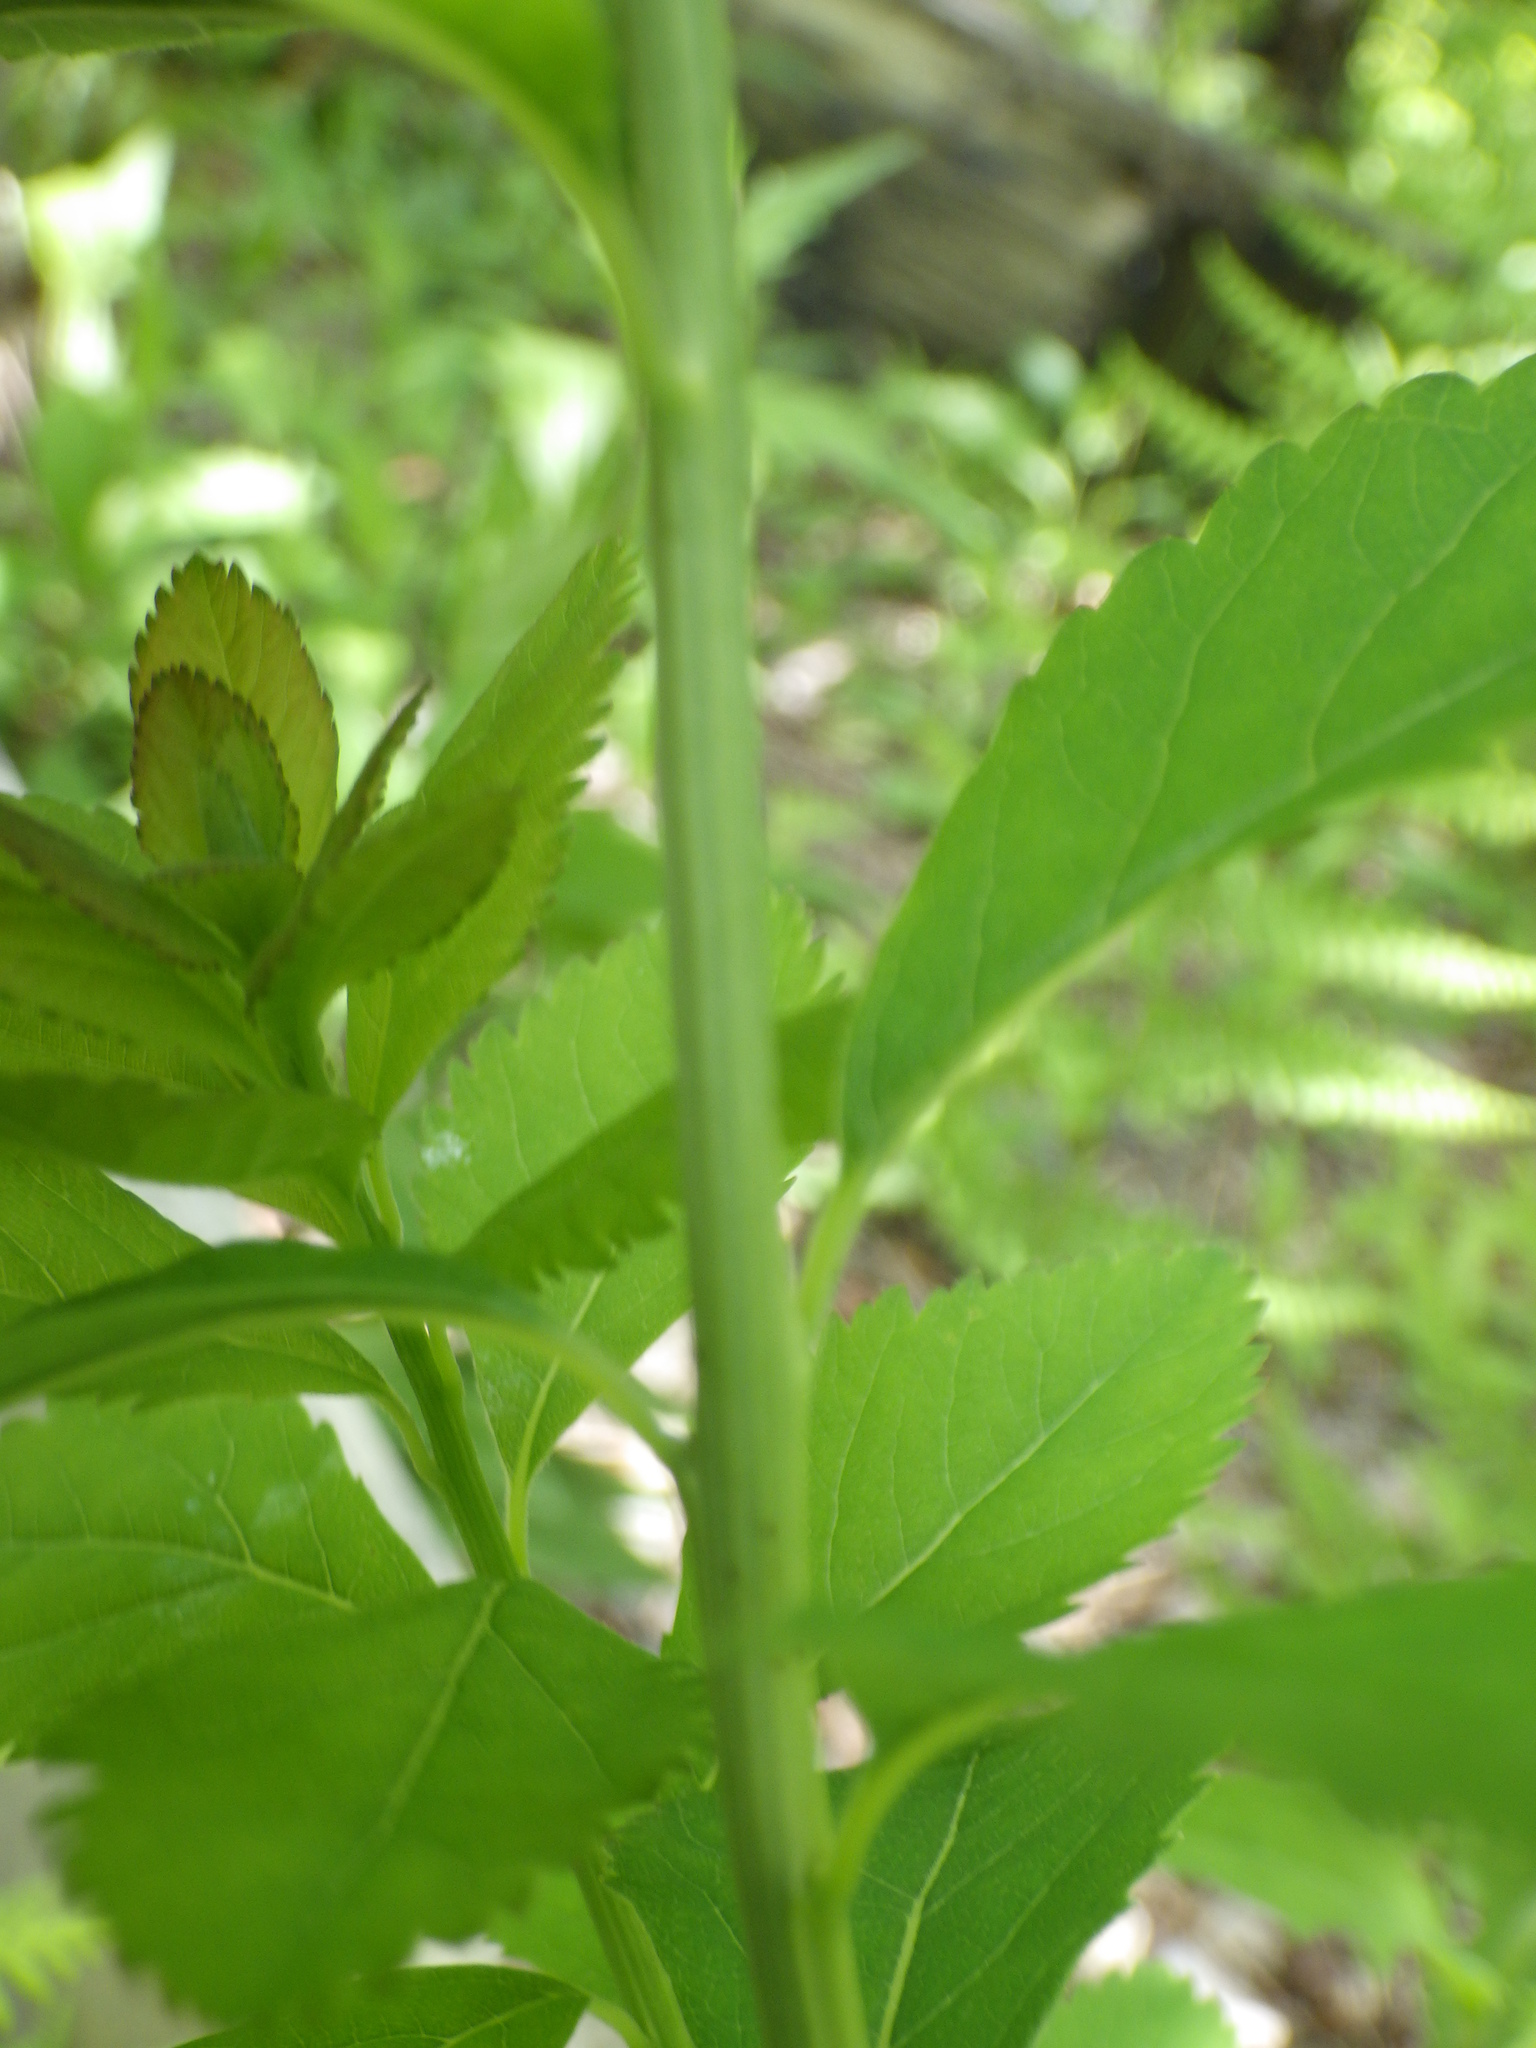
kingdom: Plantae
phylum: Tracheophyta
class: Magnoliopsida
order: Rosales
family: Rosaceae
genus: Spiraea
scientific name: Spiraea alba
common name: Pale bridewort
